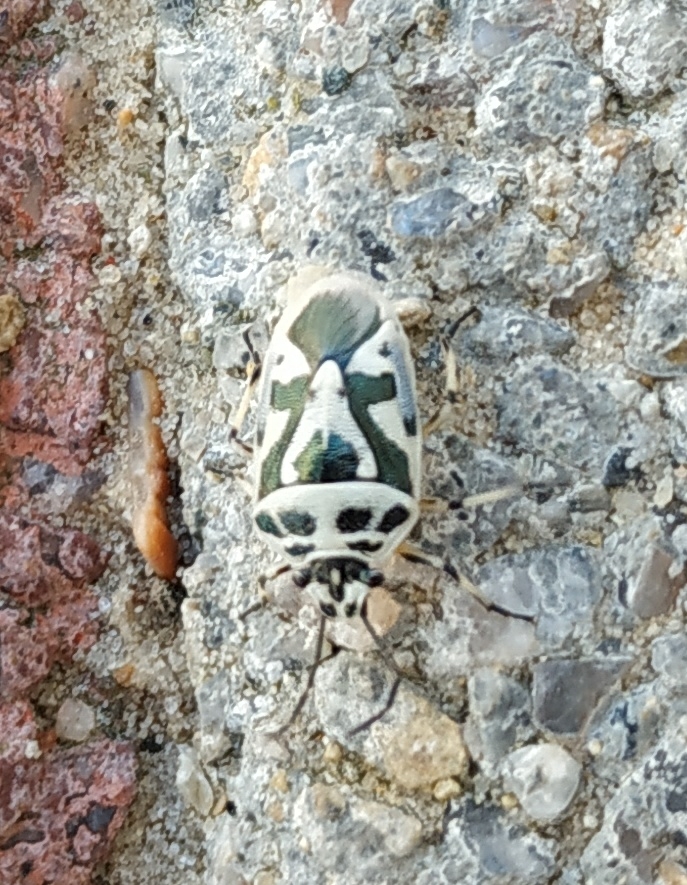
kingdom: Animalia
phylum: Arthropoda
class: Insecta
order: Hemiptera
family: Pentatomidae
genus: Eurydema
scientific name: Eurydema ornata
